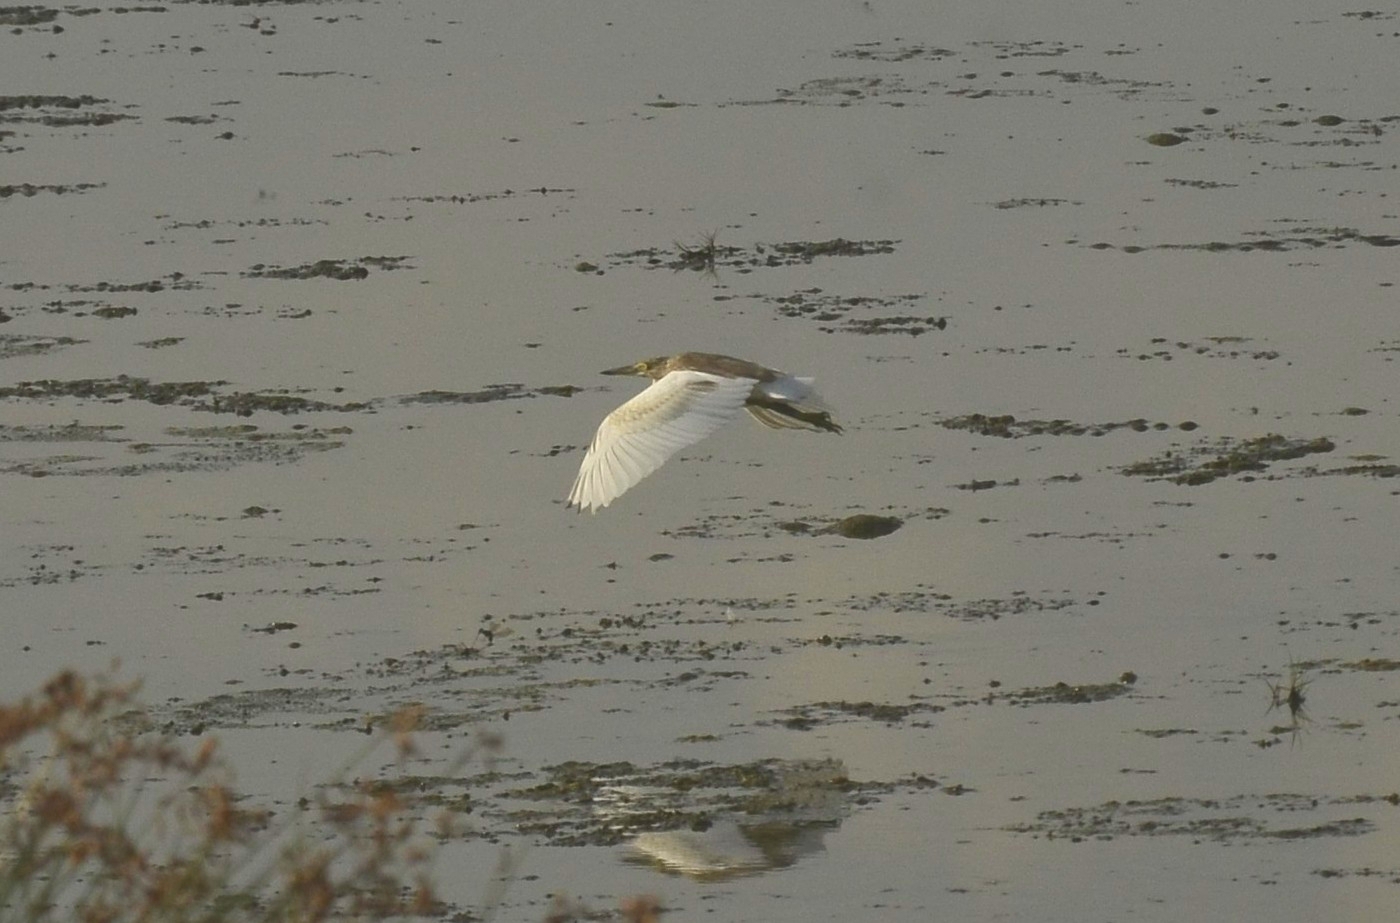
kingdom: Animalia
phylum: Chordata
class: Aves
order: Pelecaniformes
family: Ardeidae
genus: Ardeola
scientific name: Ardeola grayii
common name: Indian pond heron
